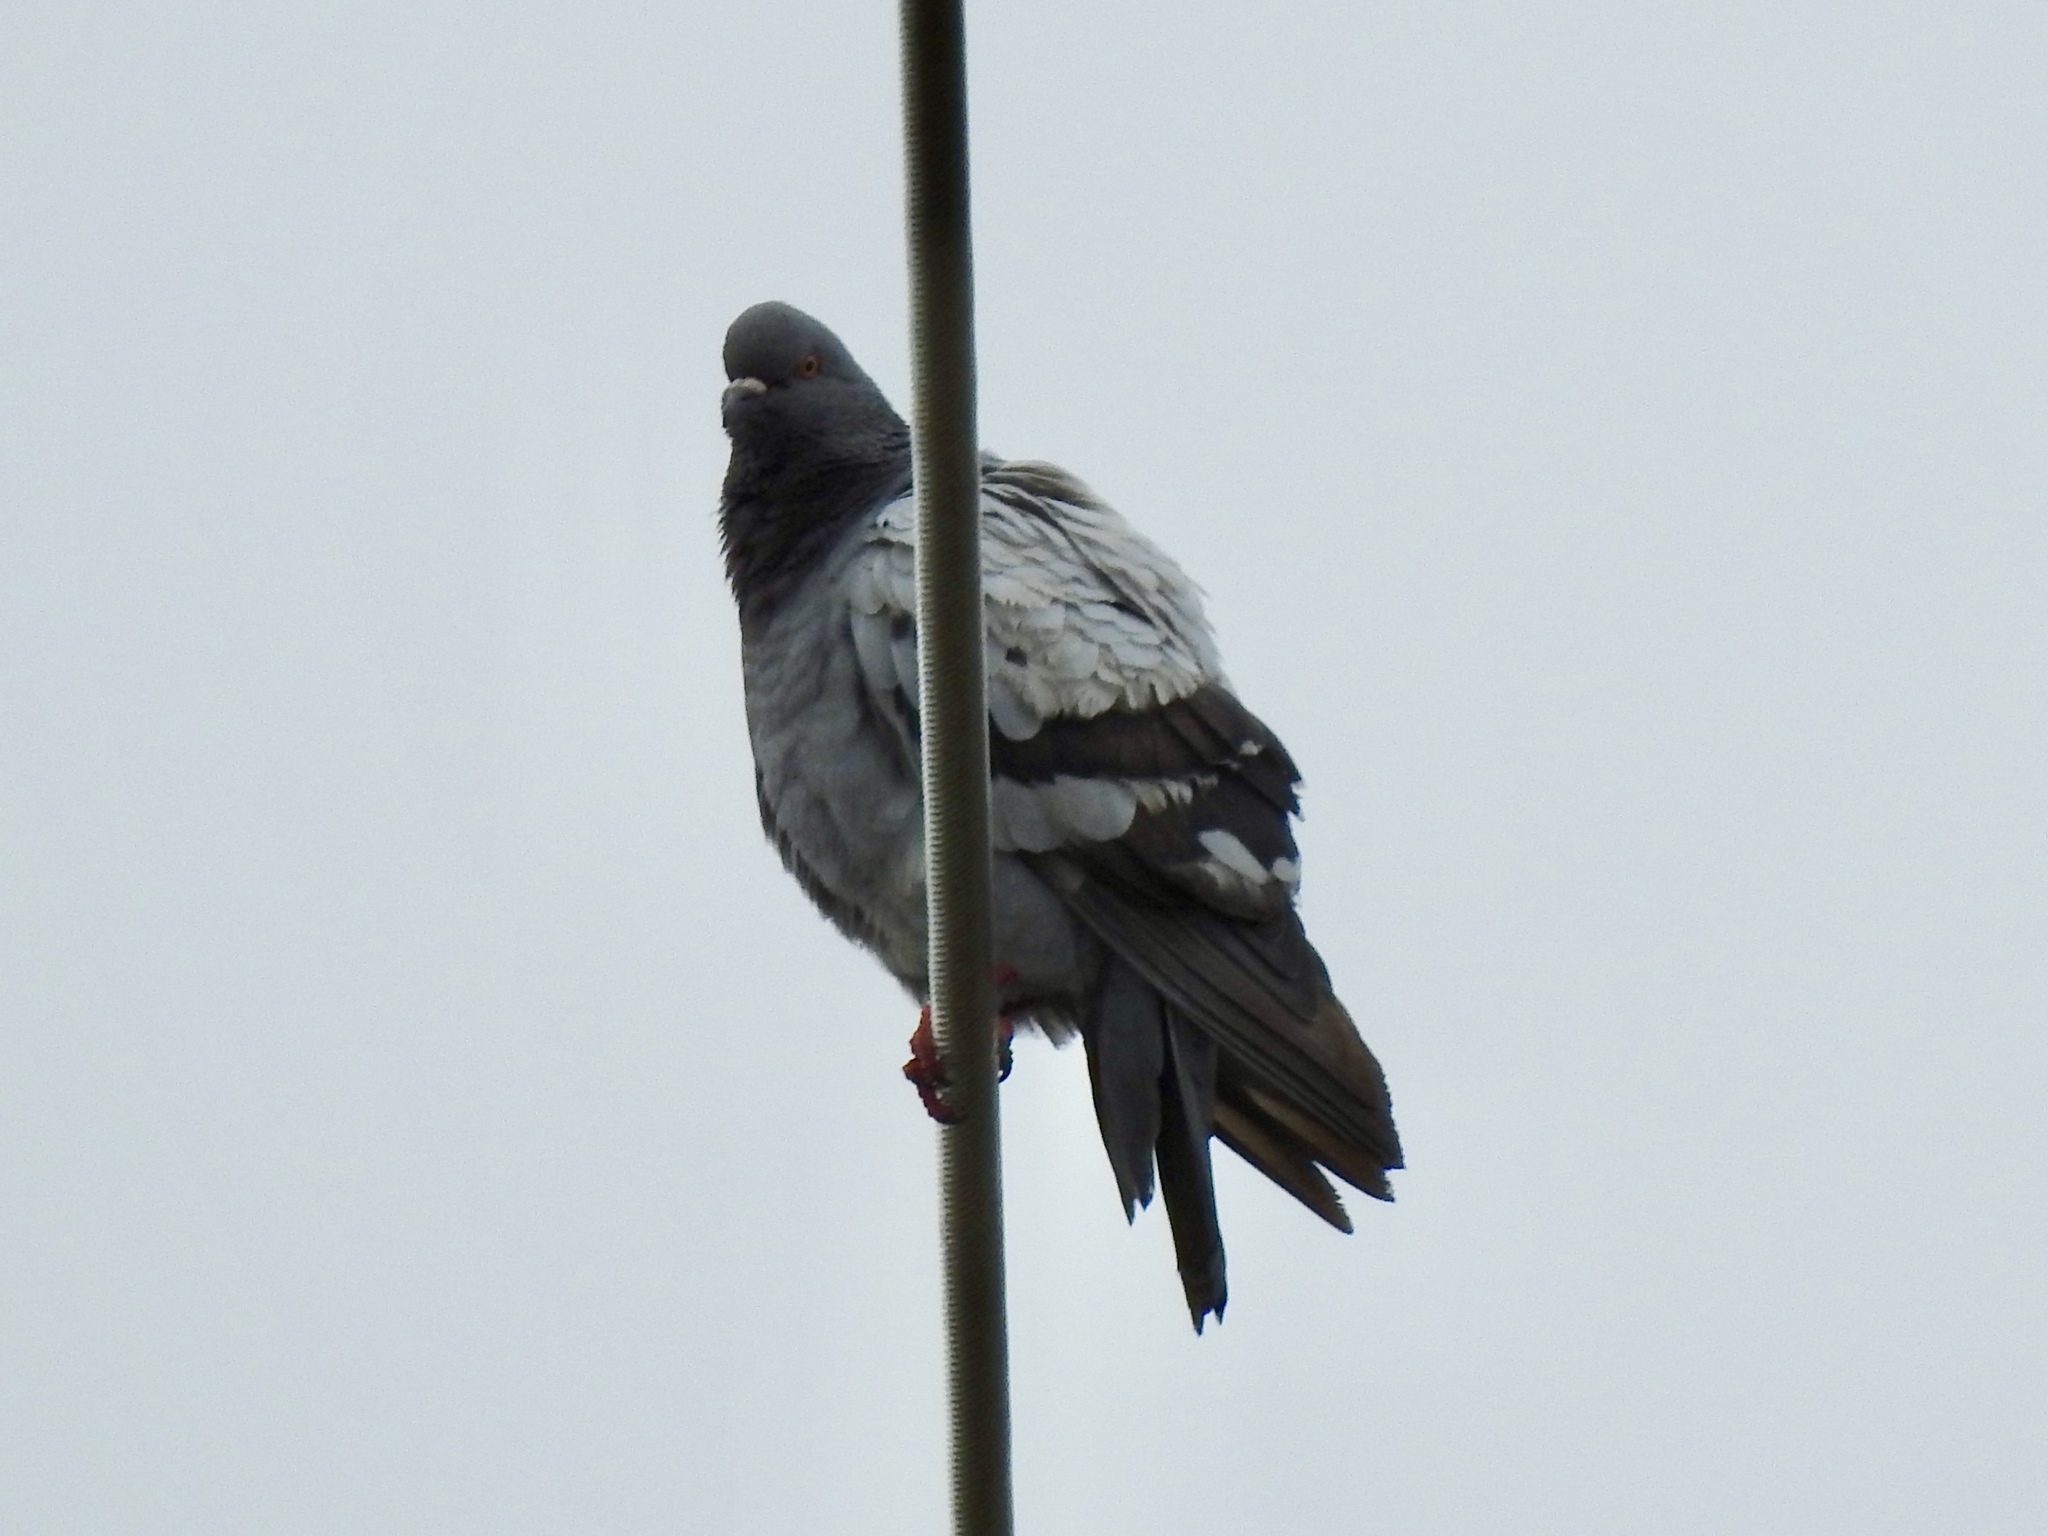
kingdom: Animalia
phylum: Chordata
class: Aves
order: Columbiformes
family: Columbidae
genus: Columba
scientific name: Columba livia
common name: Rock pigeon
